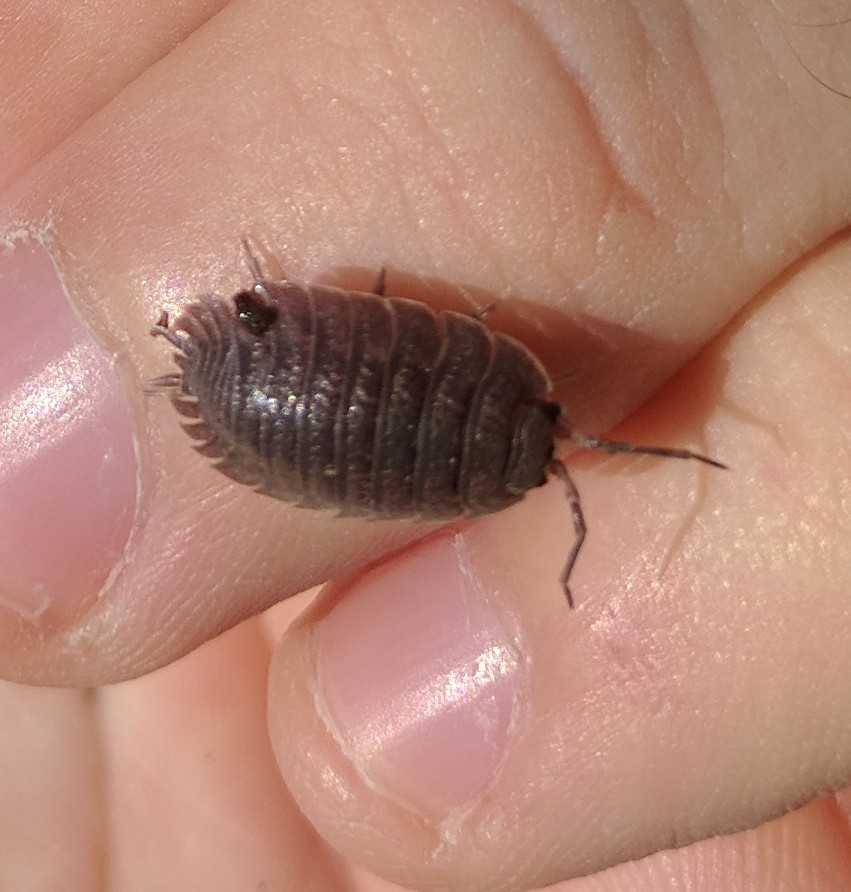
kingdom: Animalia
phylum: Arthropoda
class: Malacostraca
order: Isopoda
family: Porcellionidae
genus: Porcellio
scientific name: Porcellio dilatatus
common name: Isopod
